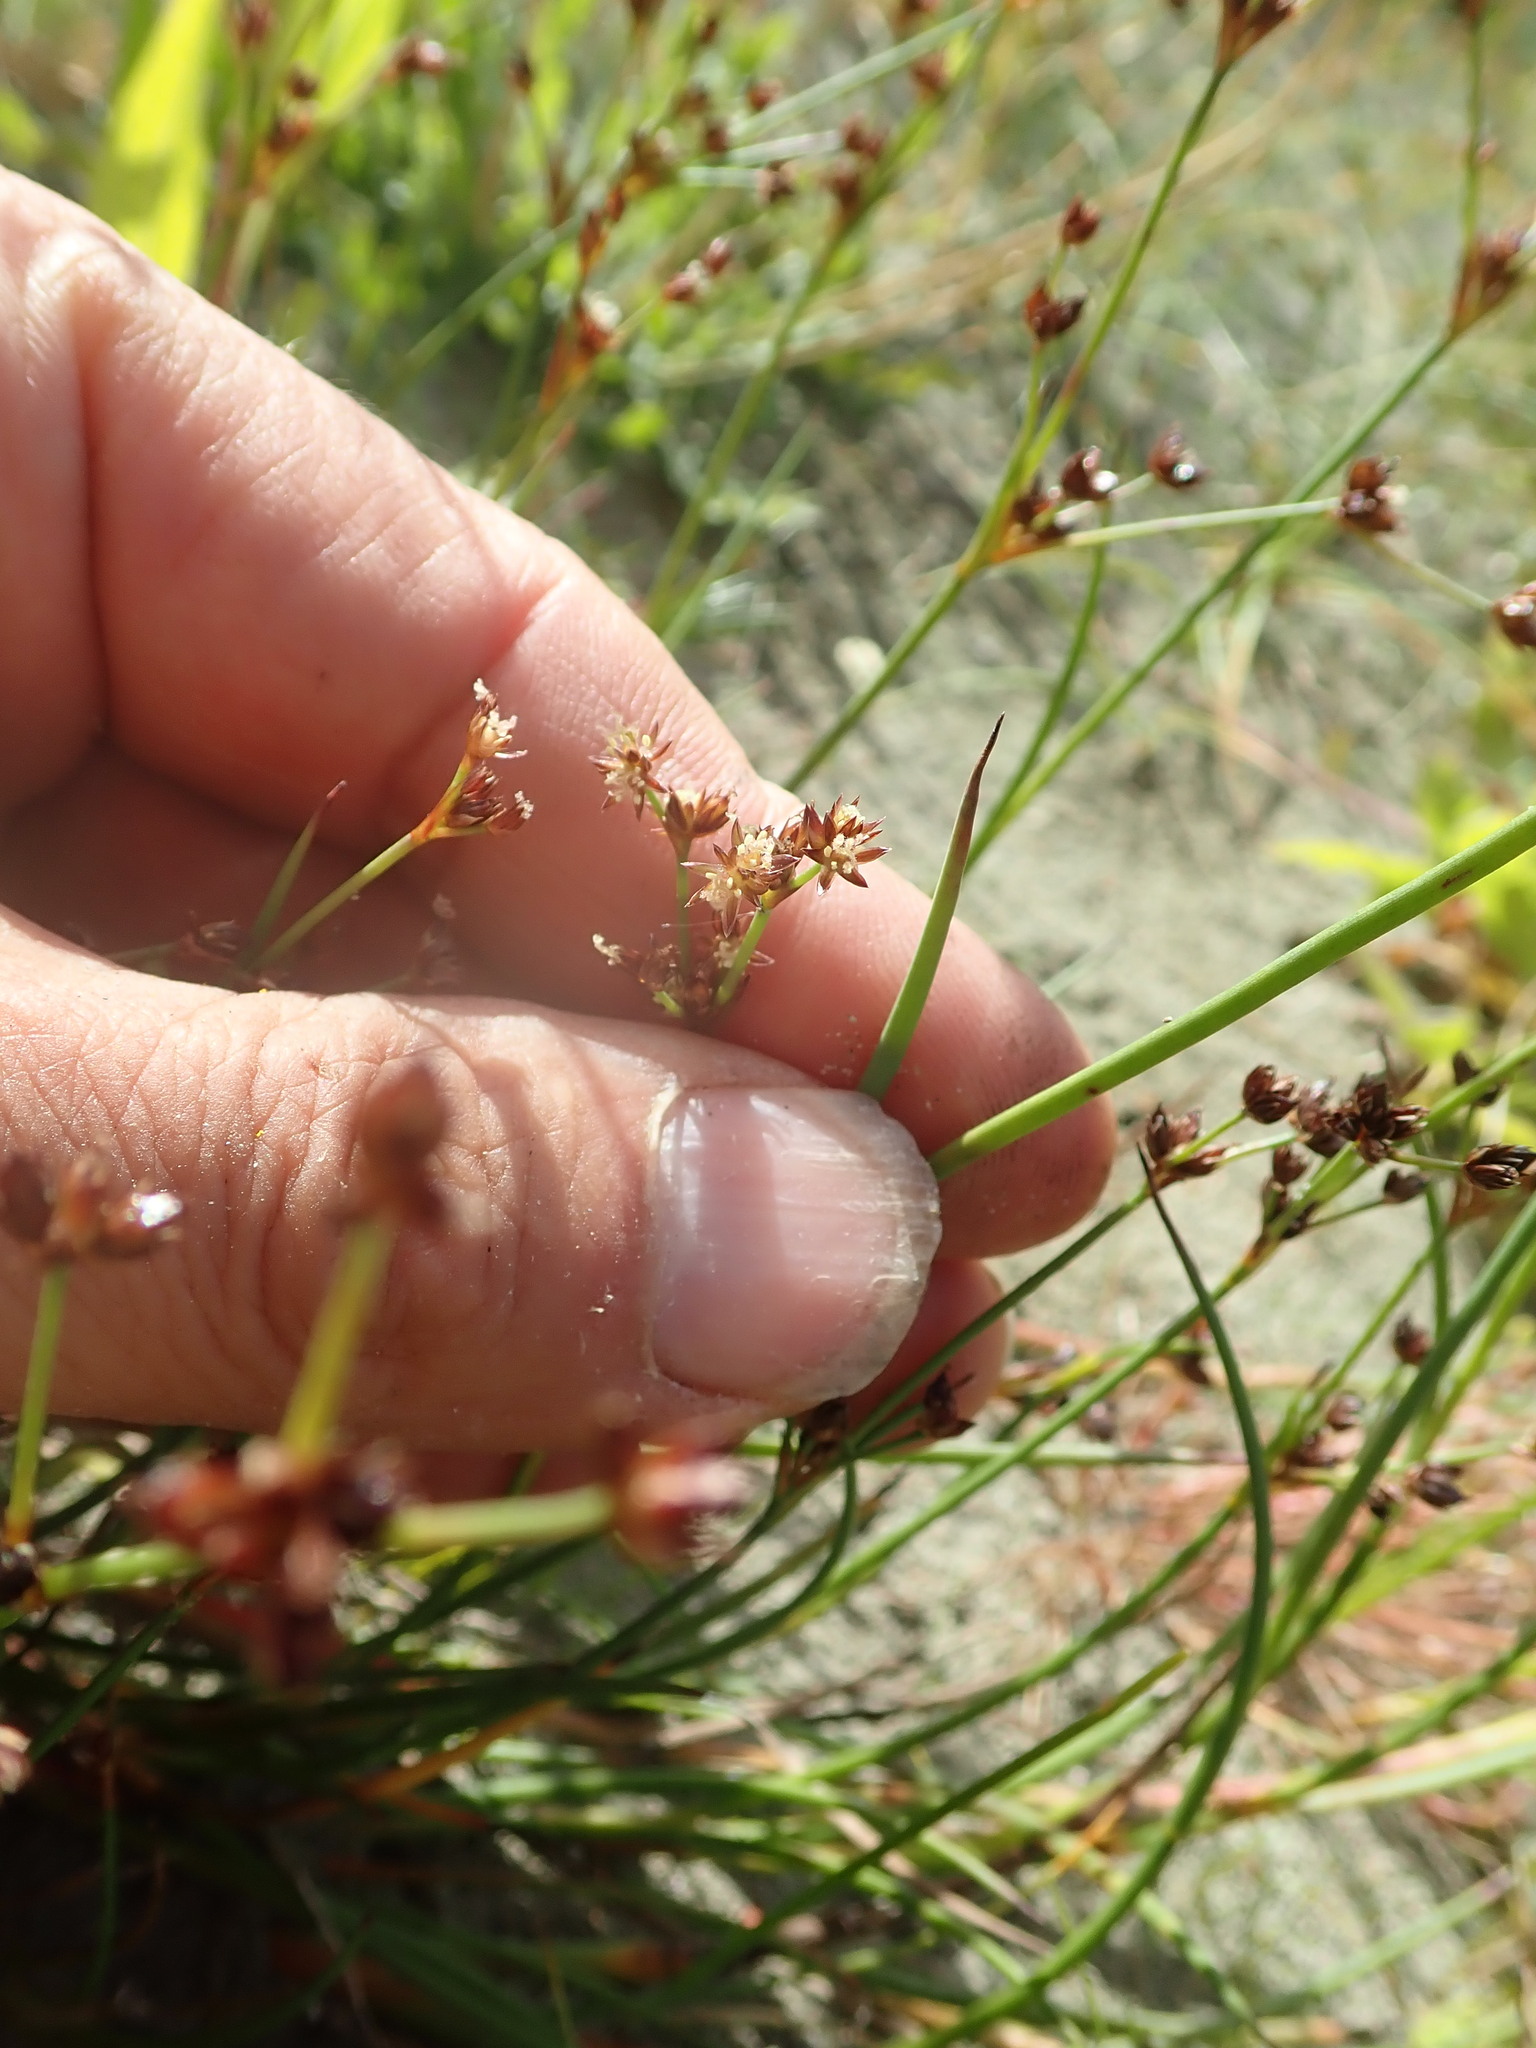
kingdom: Plantae
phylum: Tracheophyta
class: Liliopsida
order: Poales
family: Juncaceae
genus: Juncus
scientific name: Juncus articulatus
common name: Jointed rush
